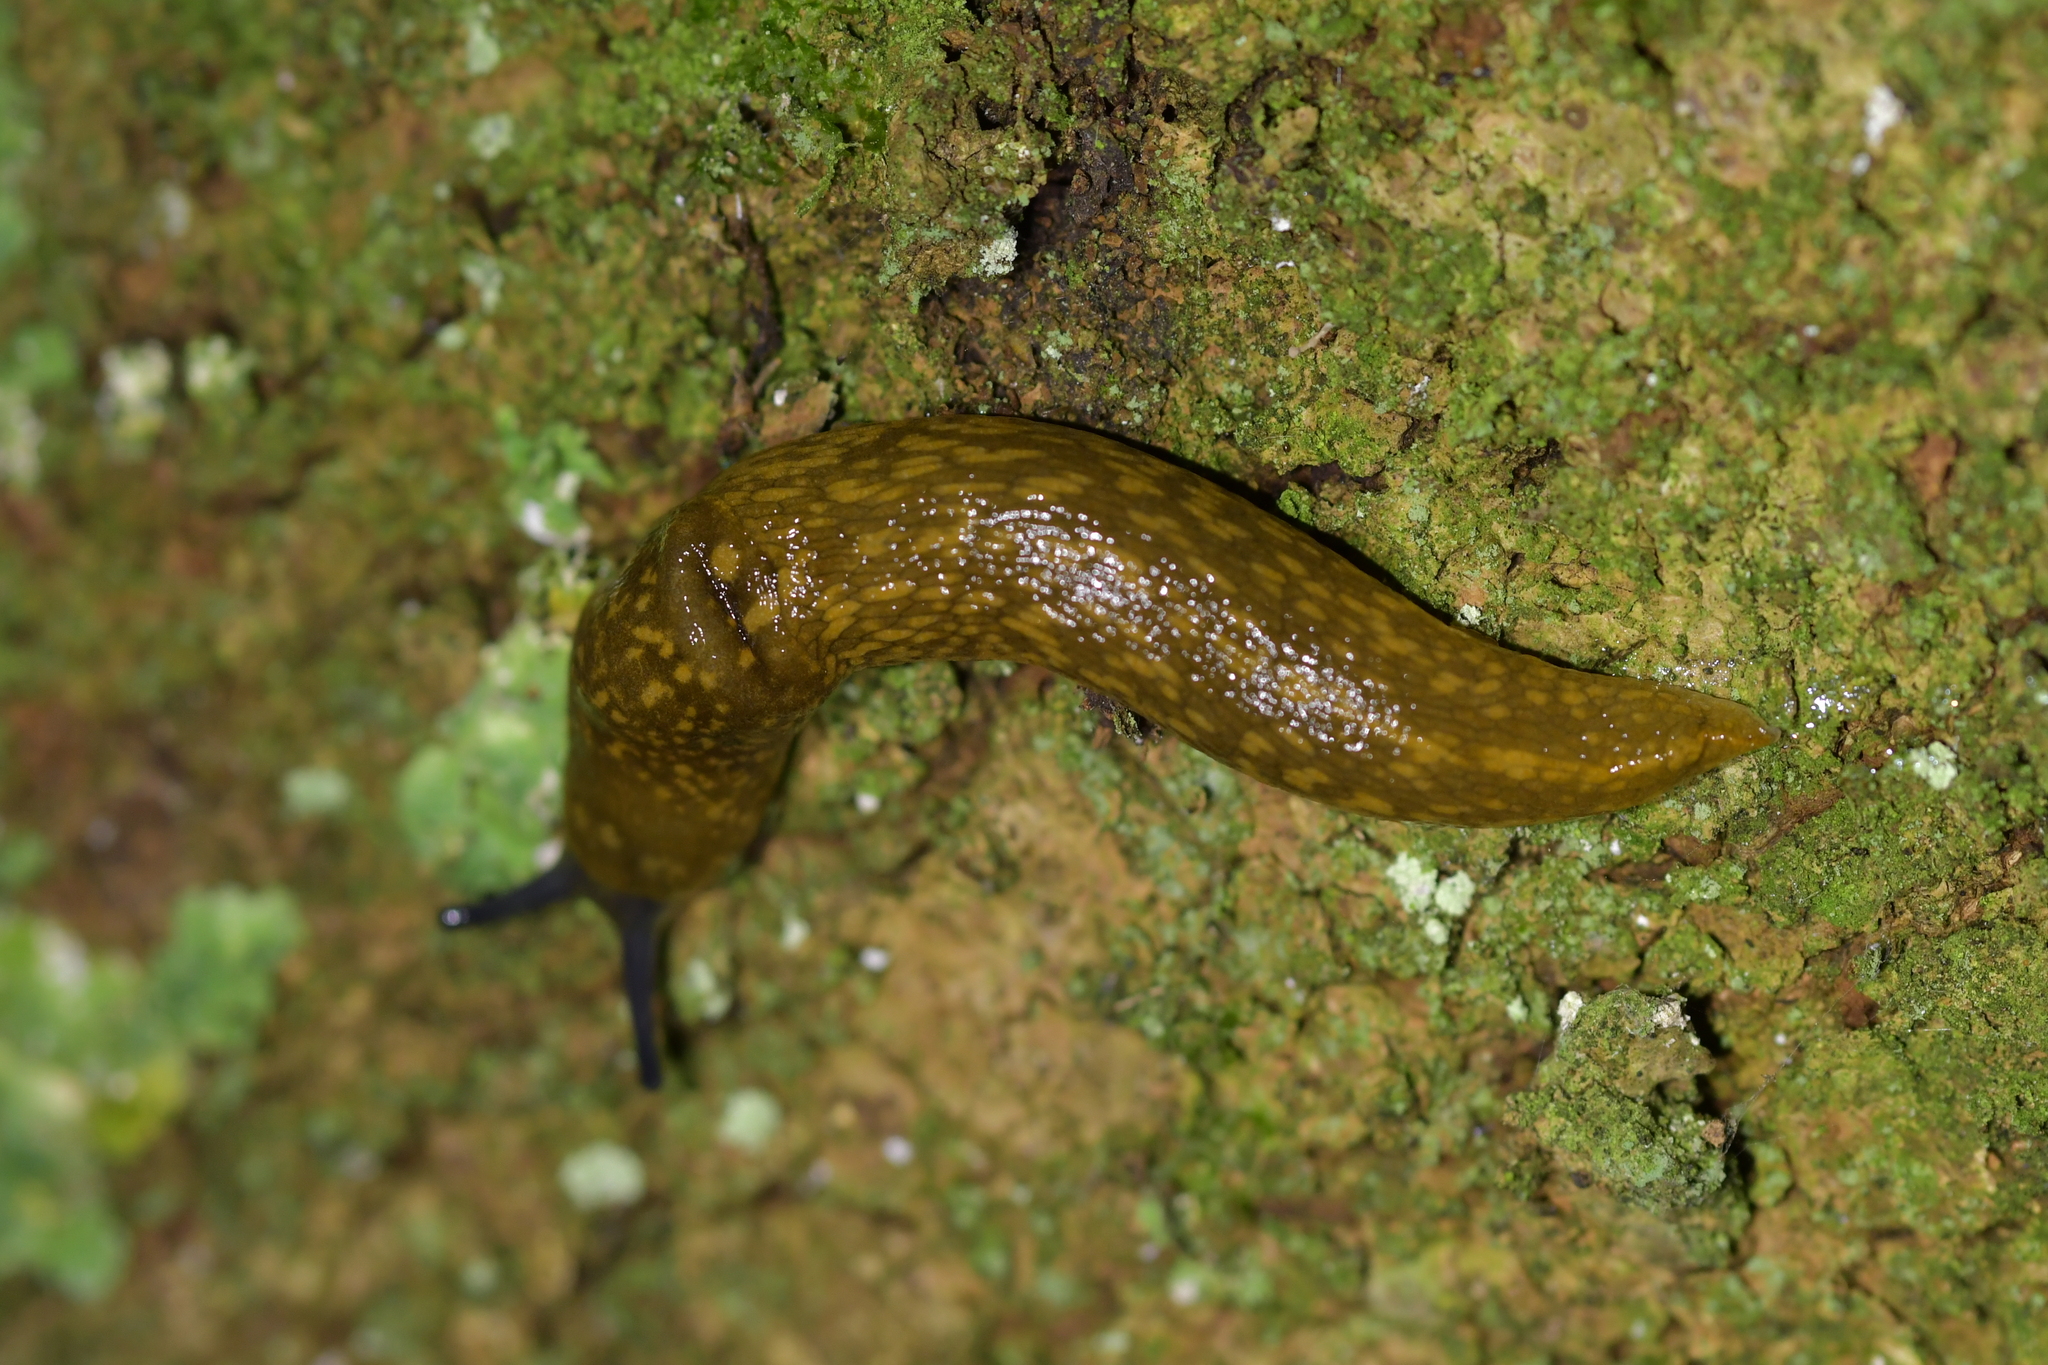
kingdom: Animalia
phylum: Mollusca
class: Gastropoda
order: Stylommatophora
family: Limacidae
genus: Limacus
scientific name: Limacus flavus
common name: Yellow gardenslug
